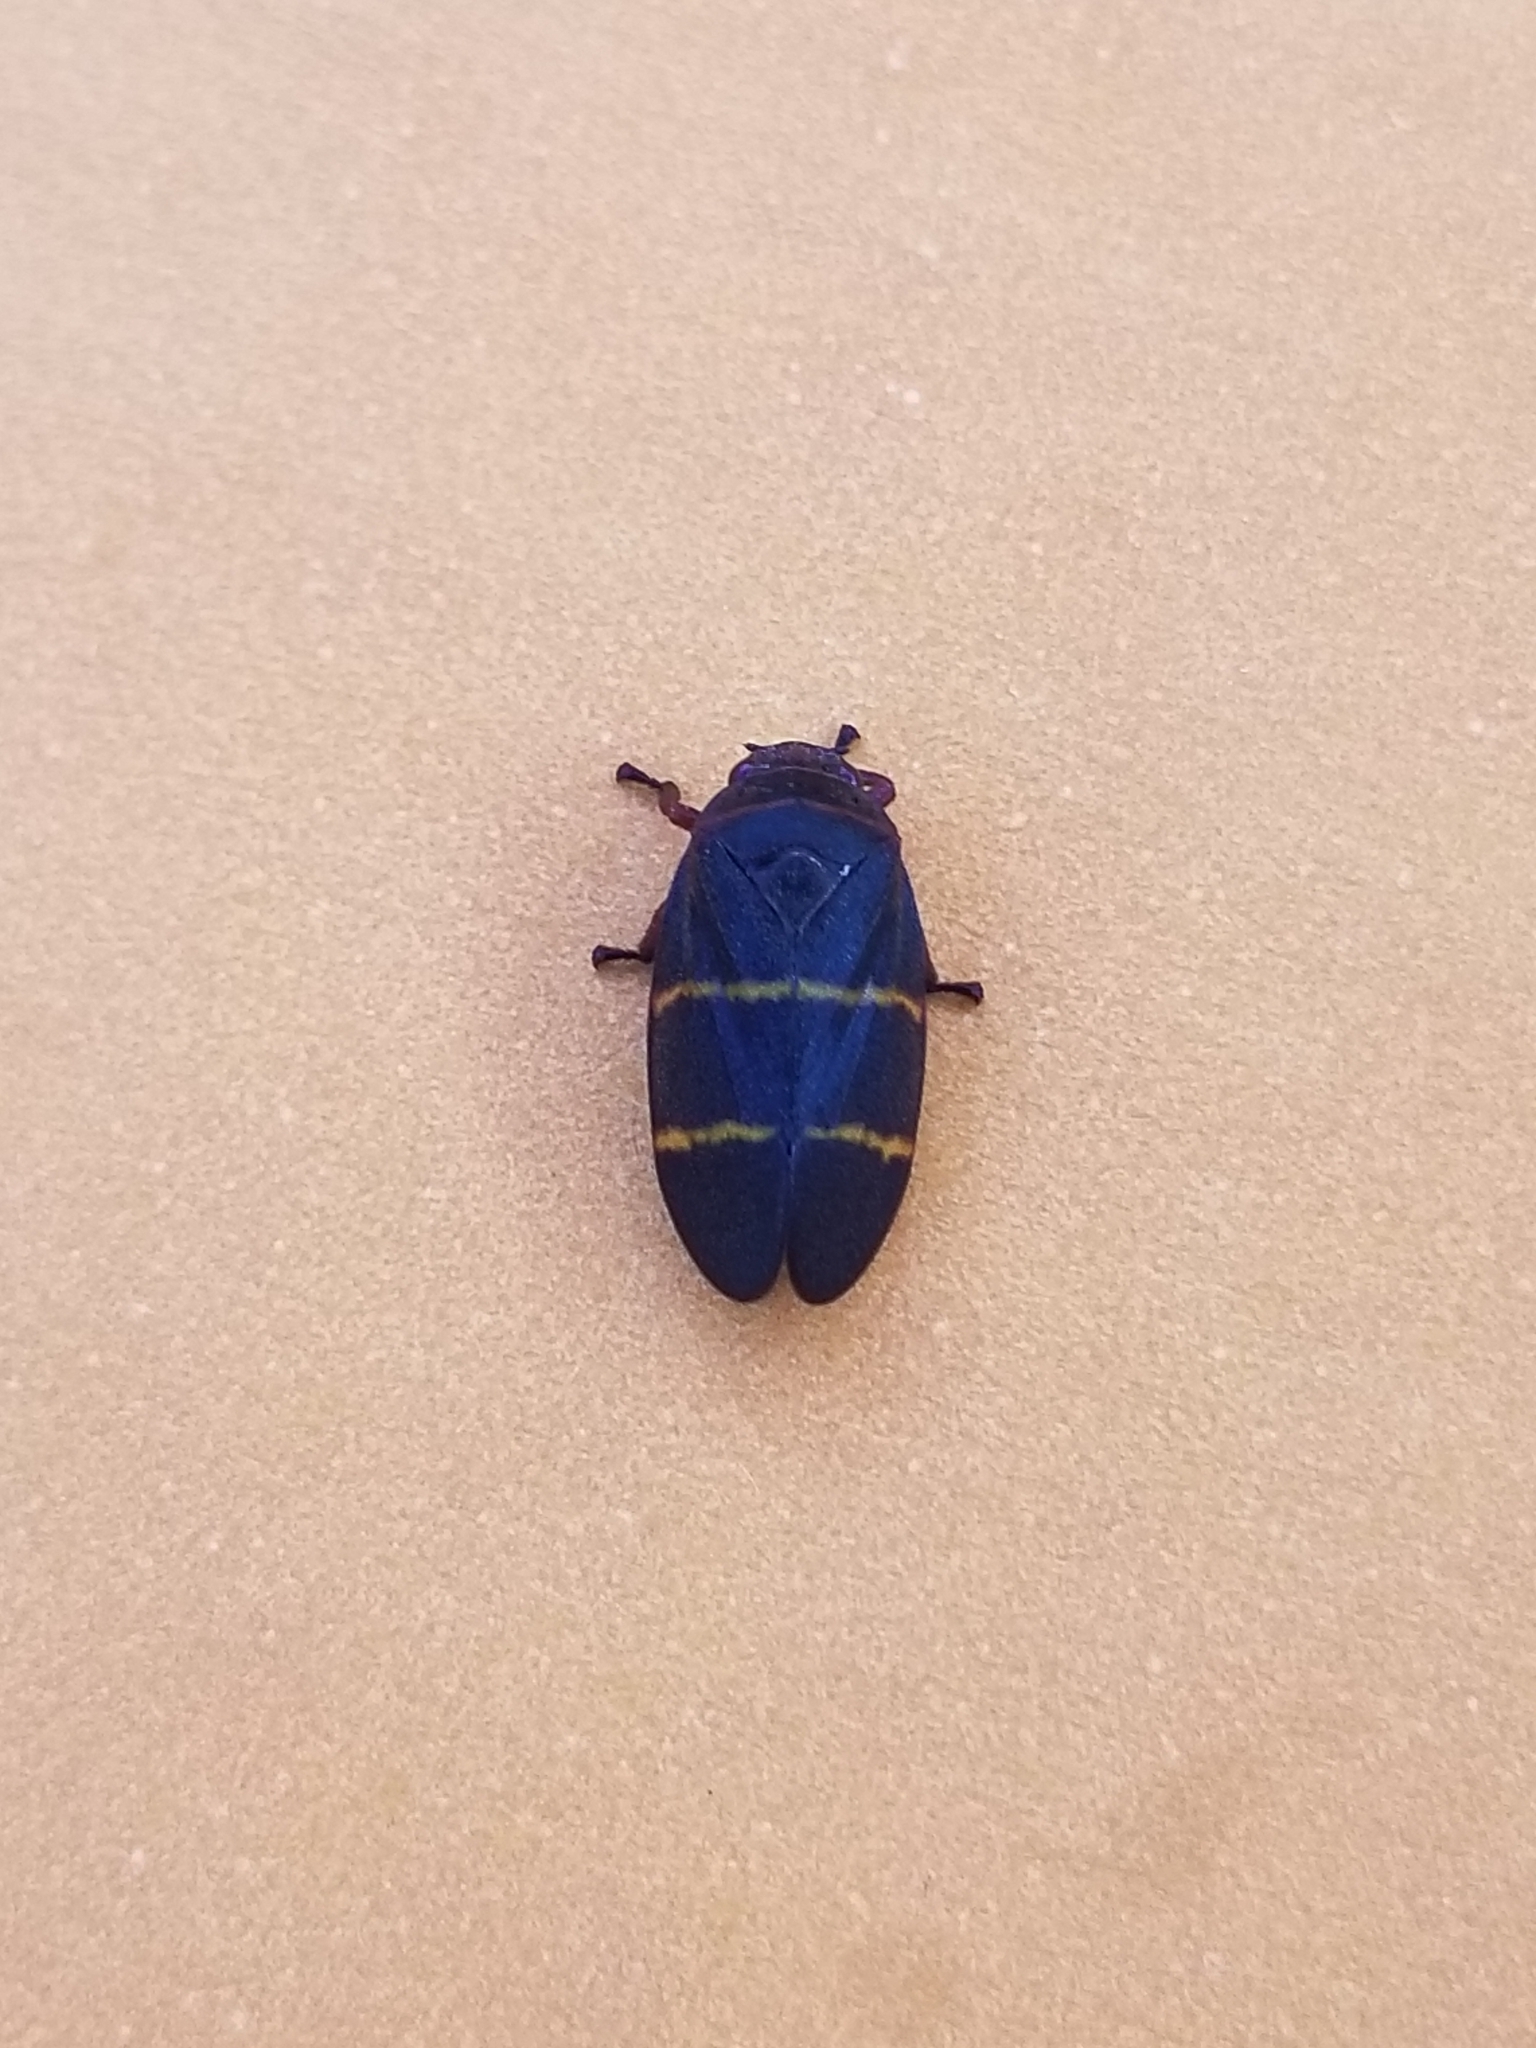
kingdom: Animalia
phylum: Arthropoda
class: Insecta
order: Hemiptera
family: Cercopidae
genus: Prosapia
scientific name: Prosapia bicincta
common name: Twolined spittlebug
